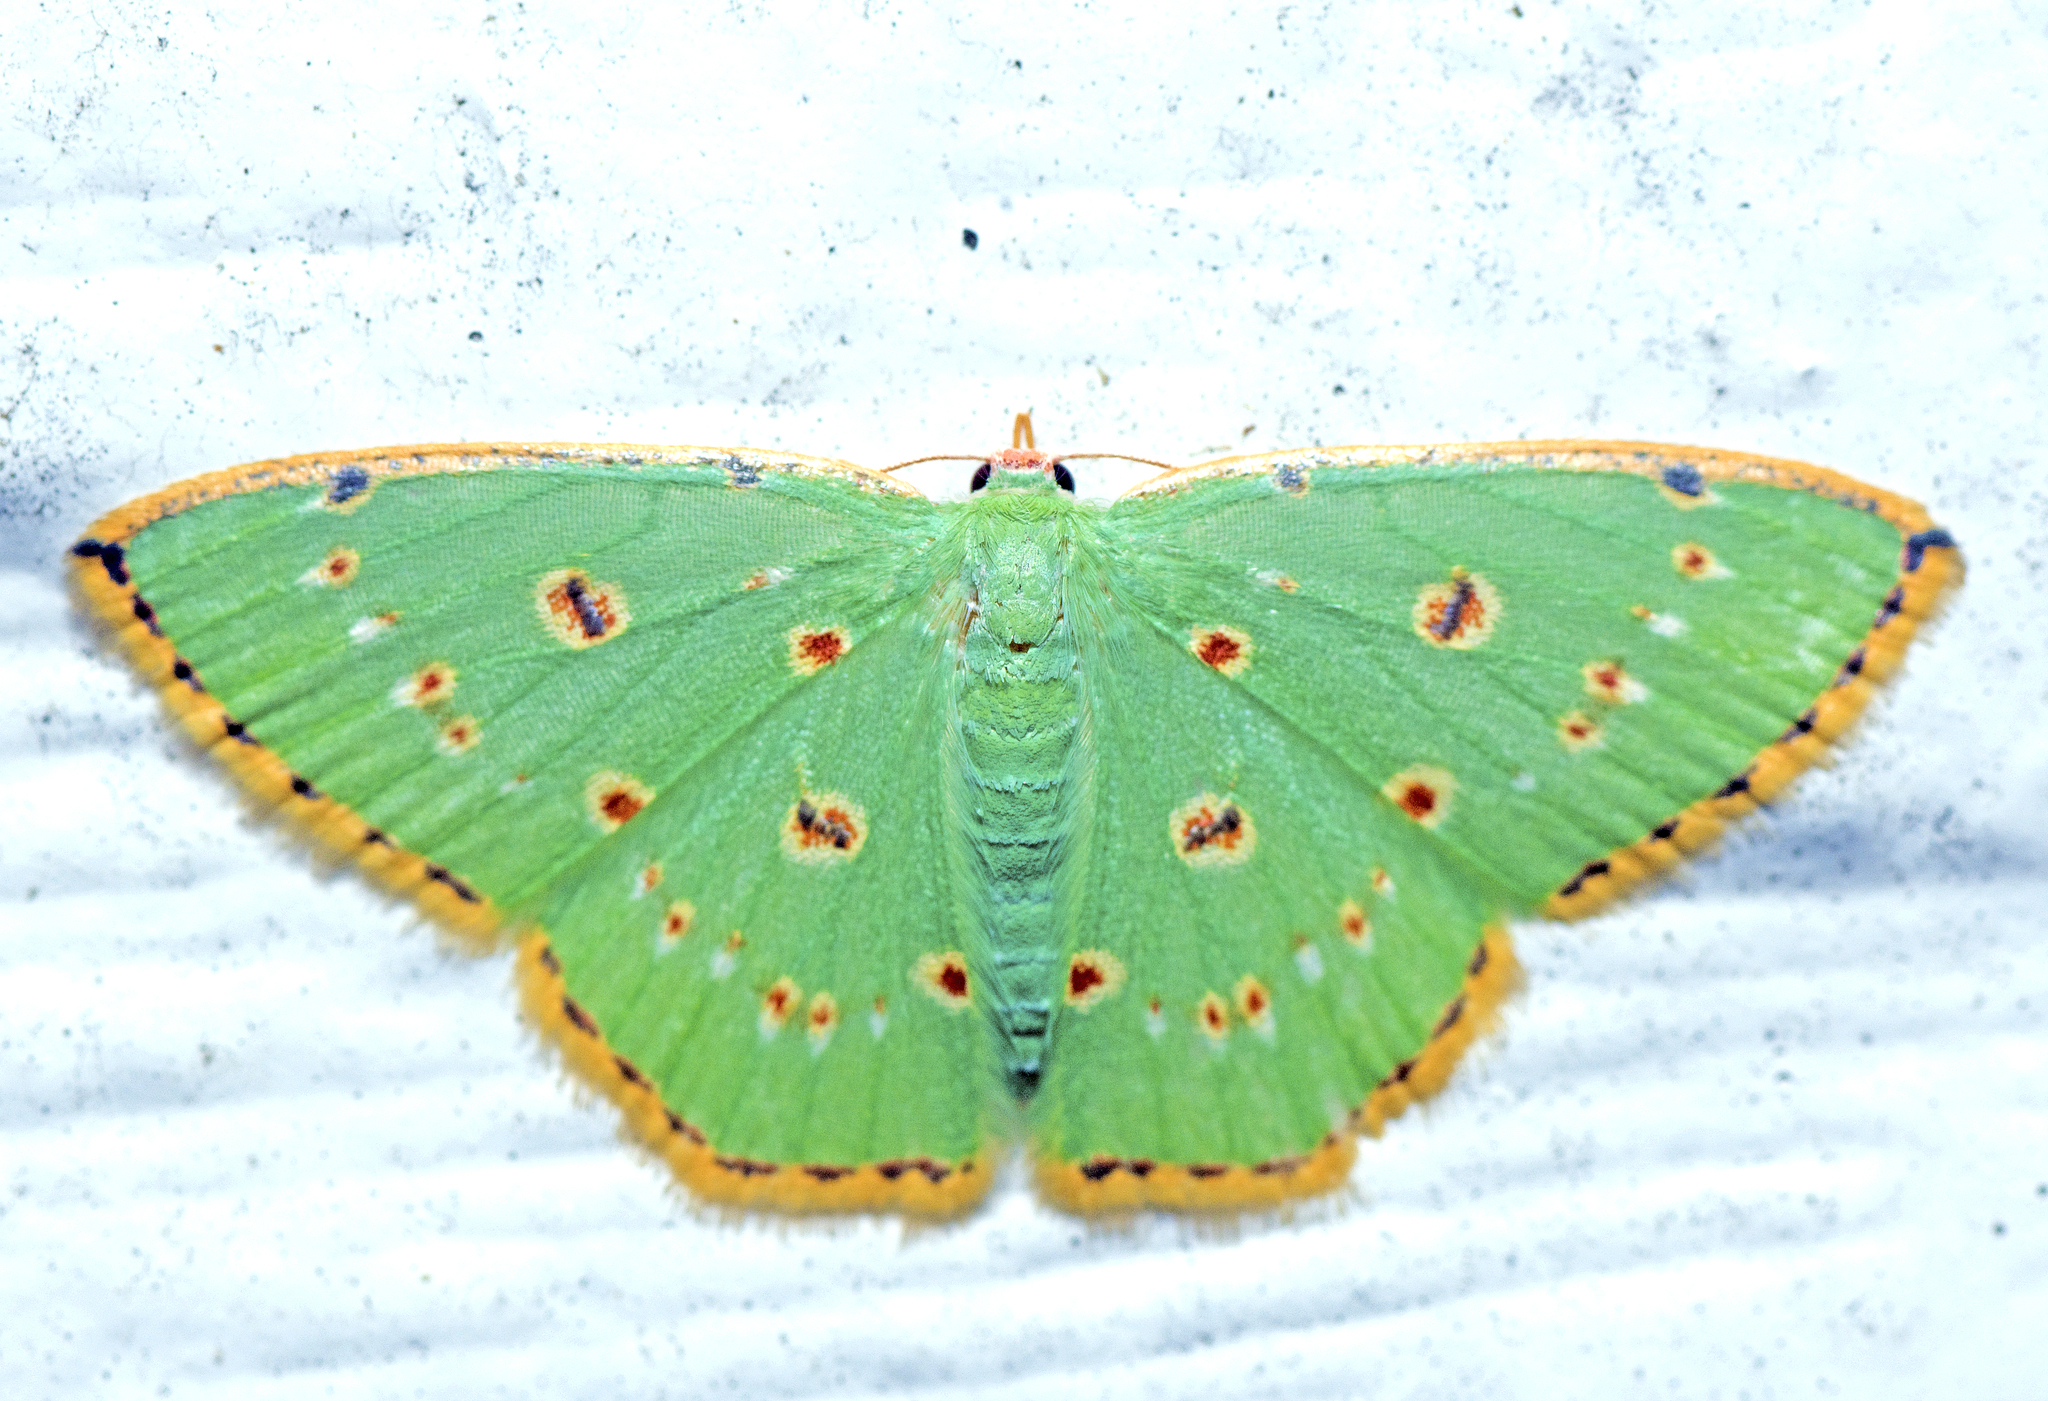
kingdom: Animalia
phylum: Arthropoda
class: Insecta
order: Lepidoptera
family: Geometridae
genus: Comostola
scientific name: Comostola laesaria
